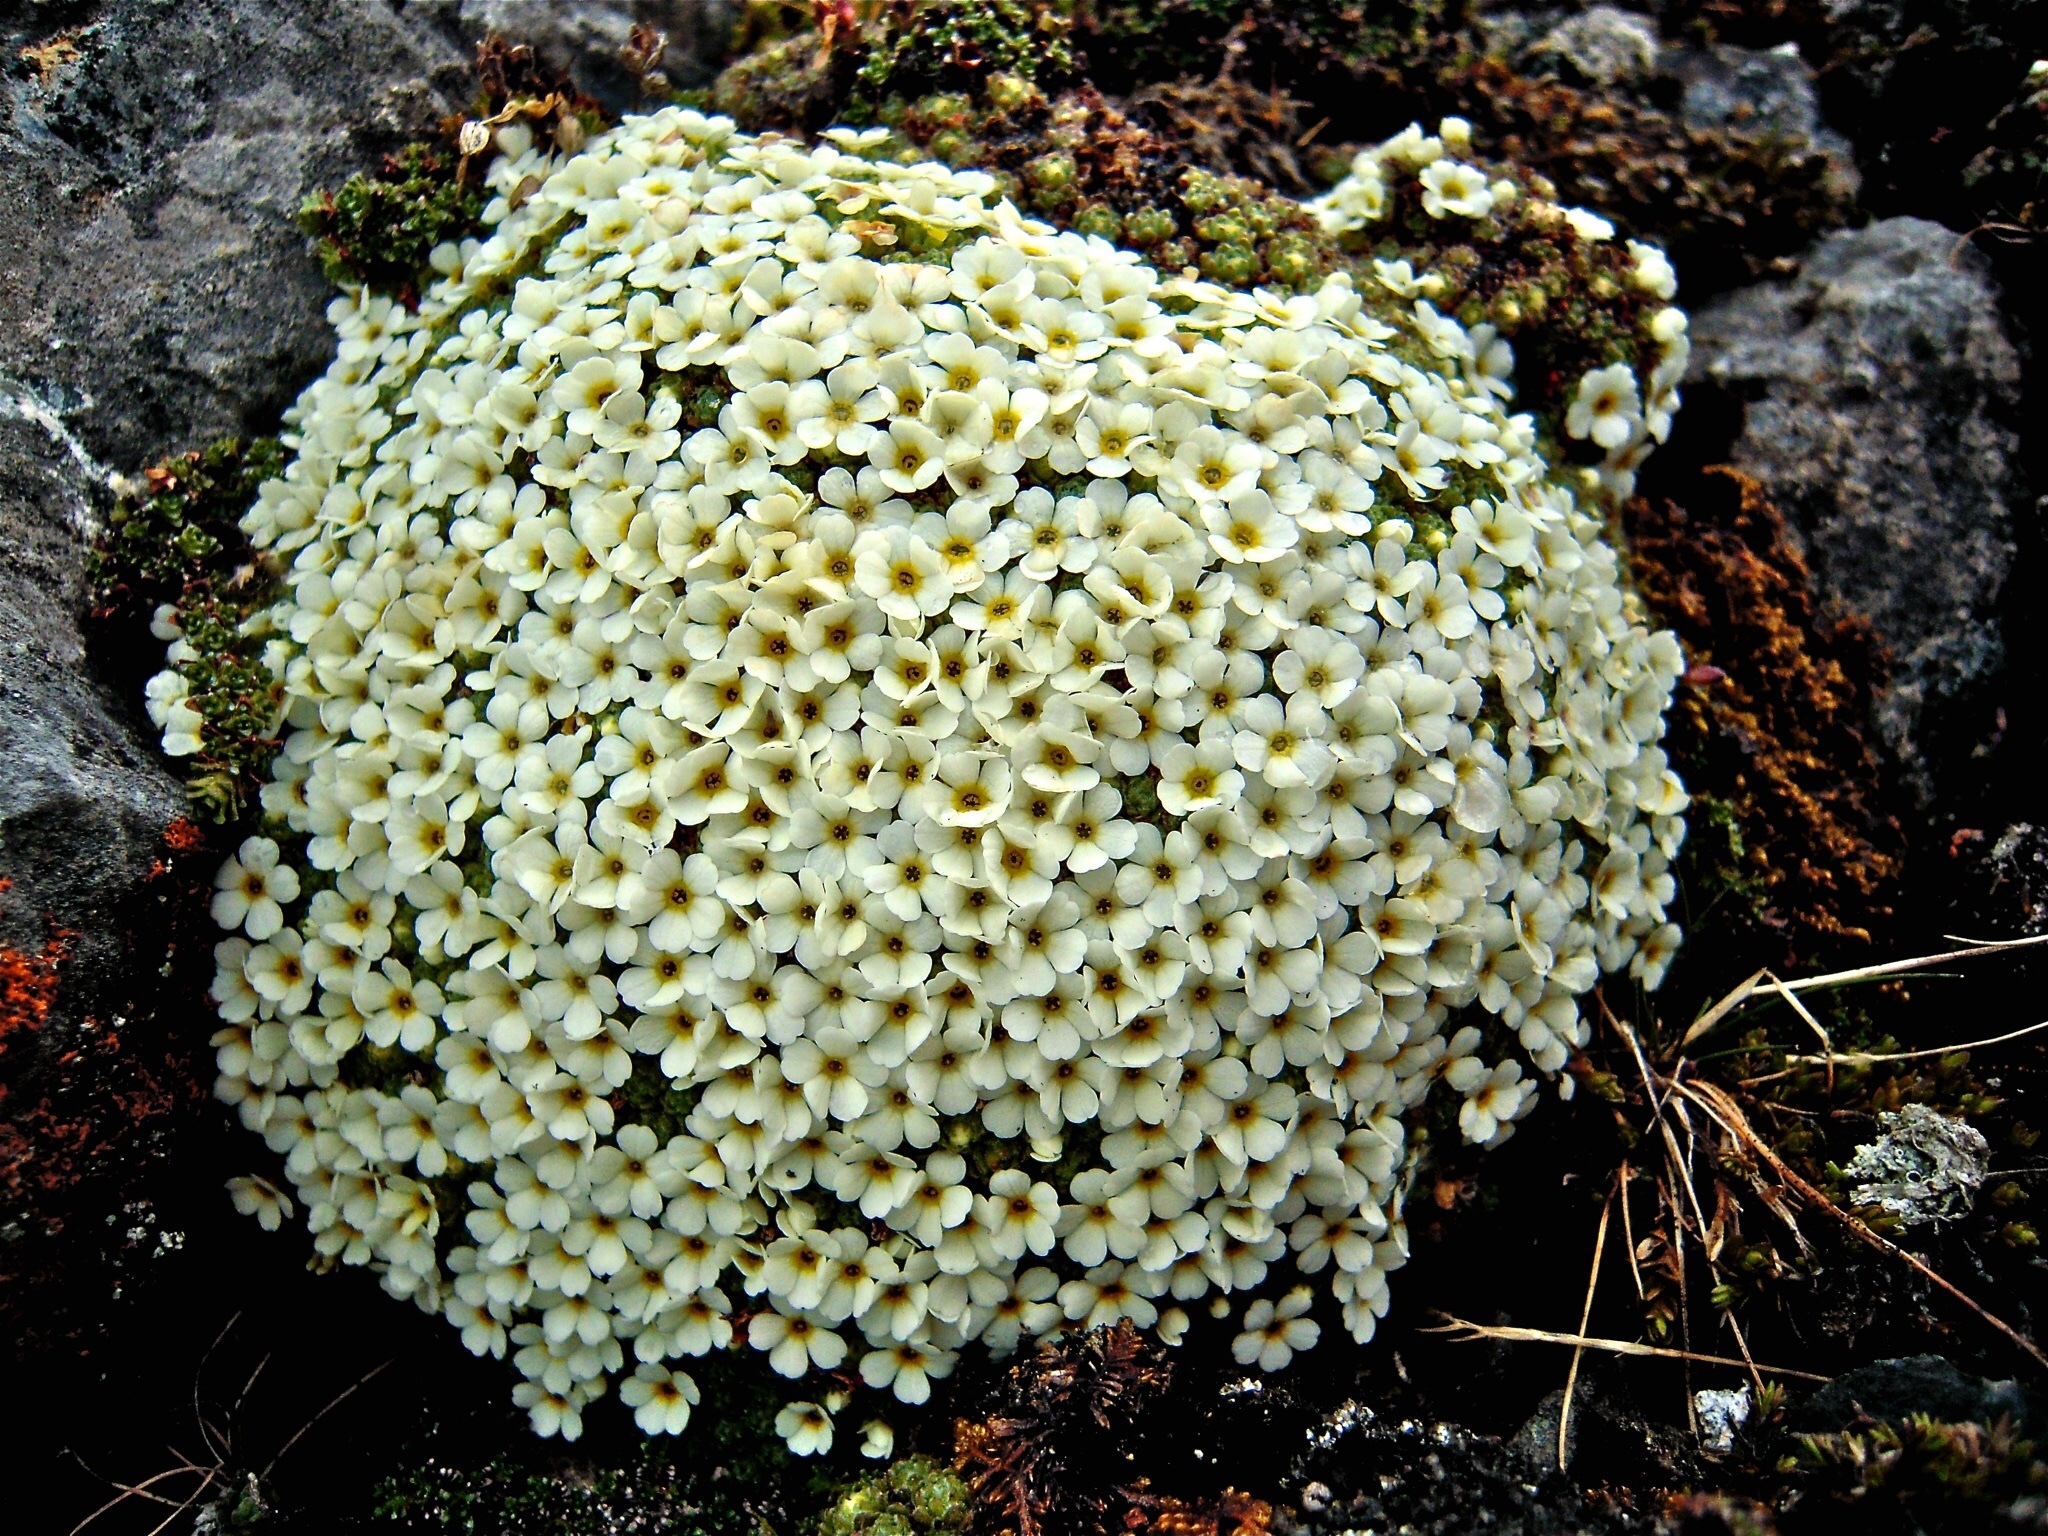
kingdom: Plantae
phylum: Tracheophyta
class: Magnoliopsida
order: Ericales
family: Primulaceae
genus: Androsace
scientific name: Androsace helvetica
